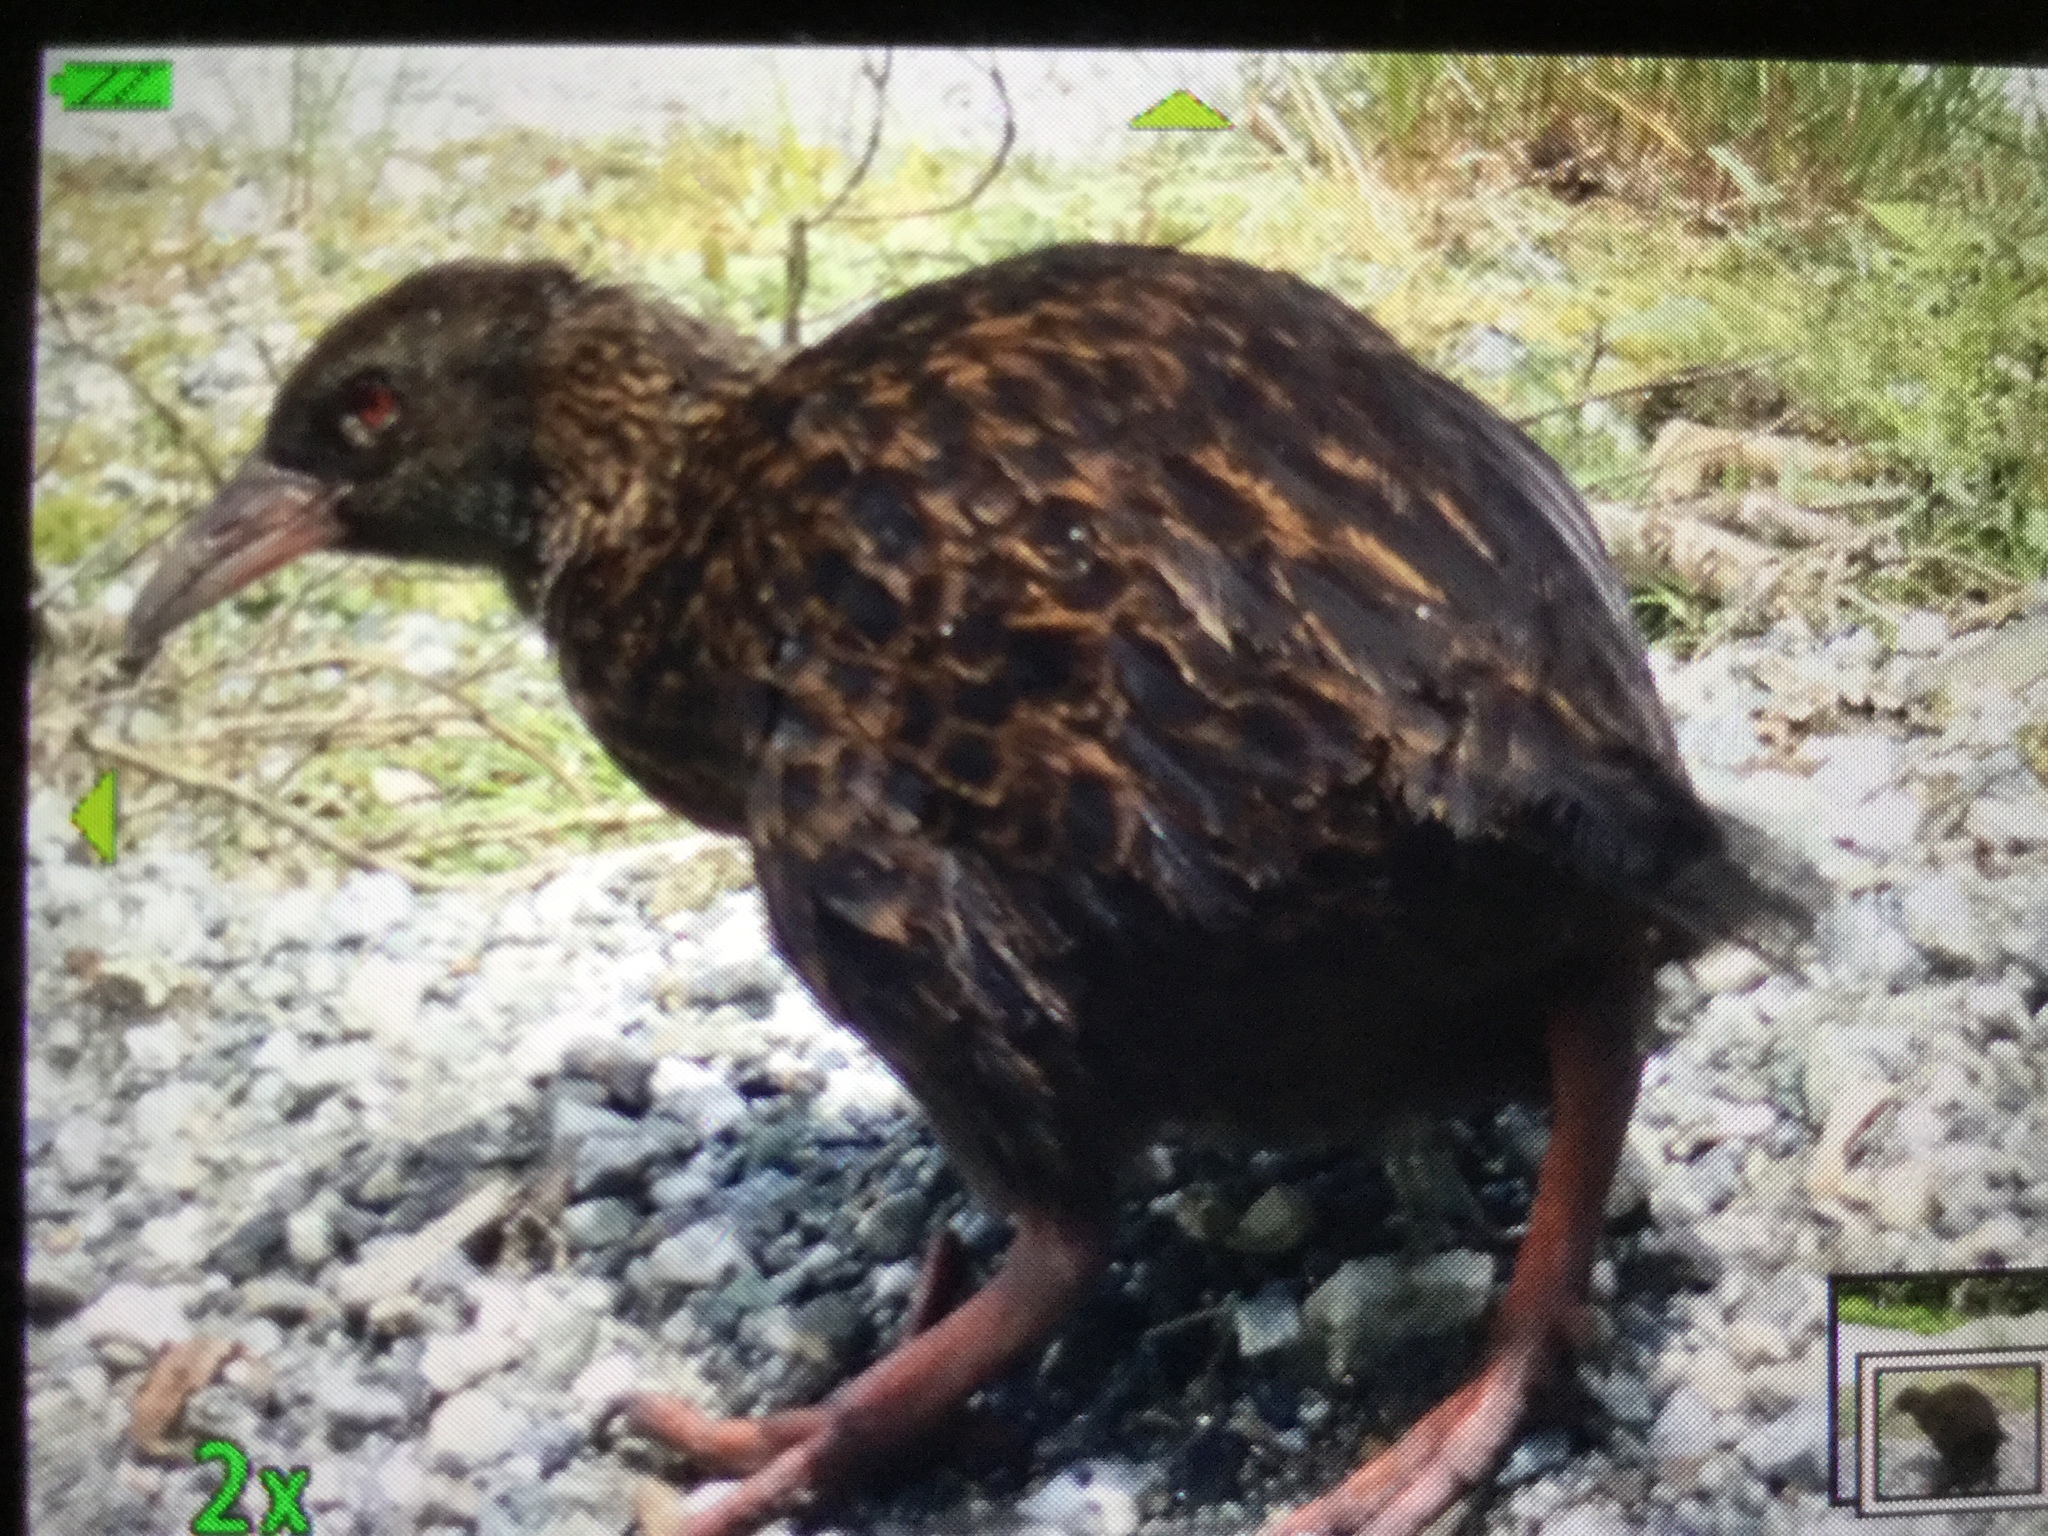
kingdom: Animalia
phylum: Chordata
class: Aves
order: Gruiformes
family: Rallidae
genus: Gallirallus
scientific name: Gallirallus australis
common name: Weka
